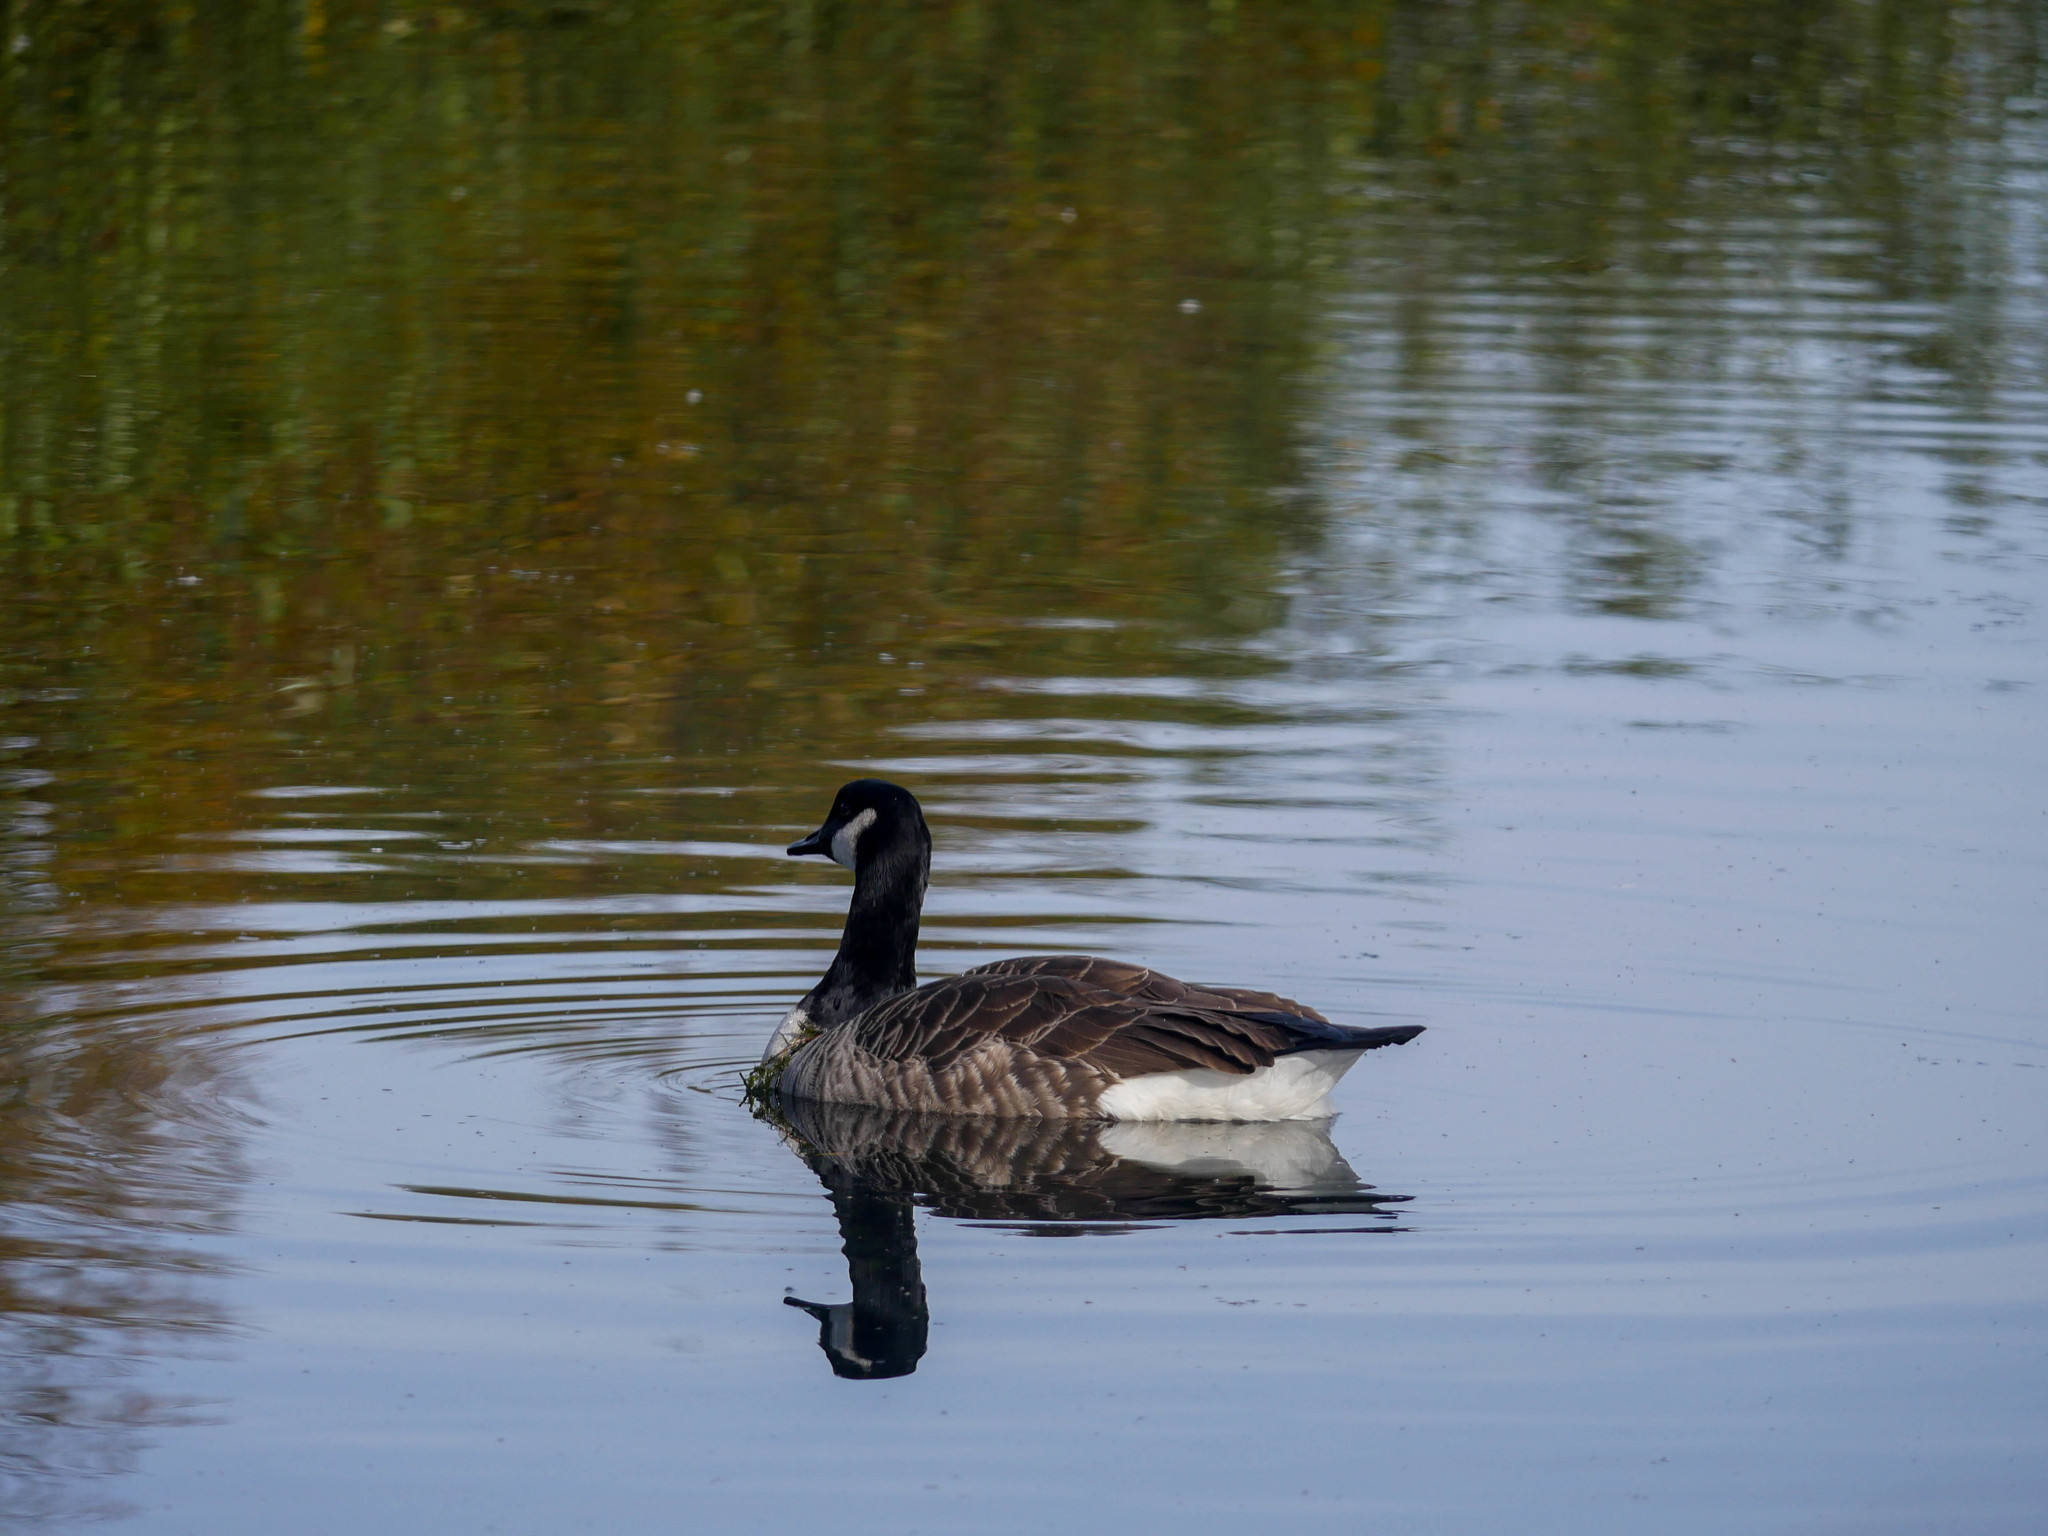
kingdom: Animalia
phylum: Chordata
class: Aves
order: Anseriformes
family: Anatidae
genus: Branta
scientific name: Branta canadensis
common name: Canada goose
